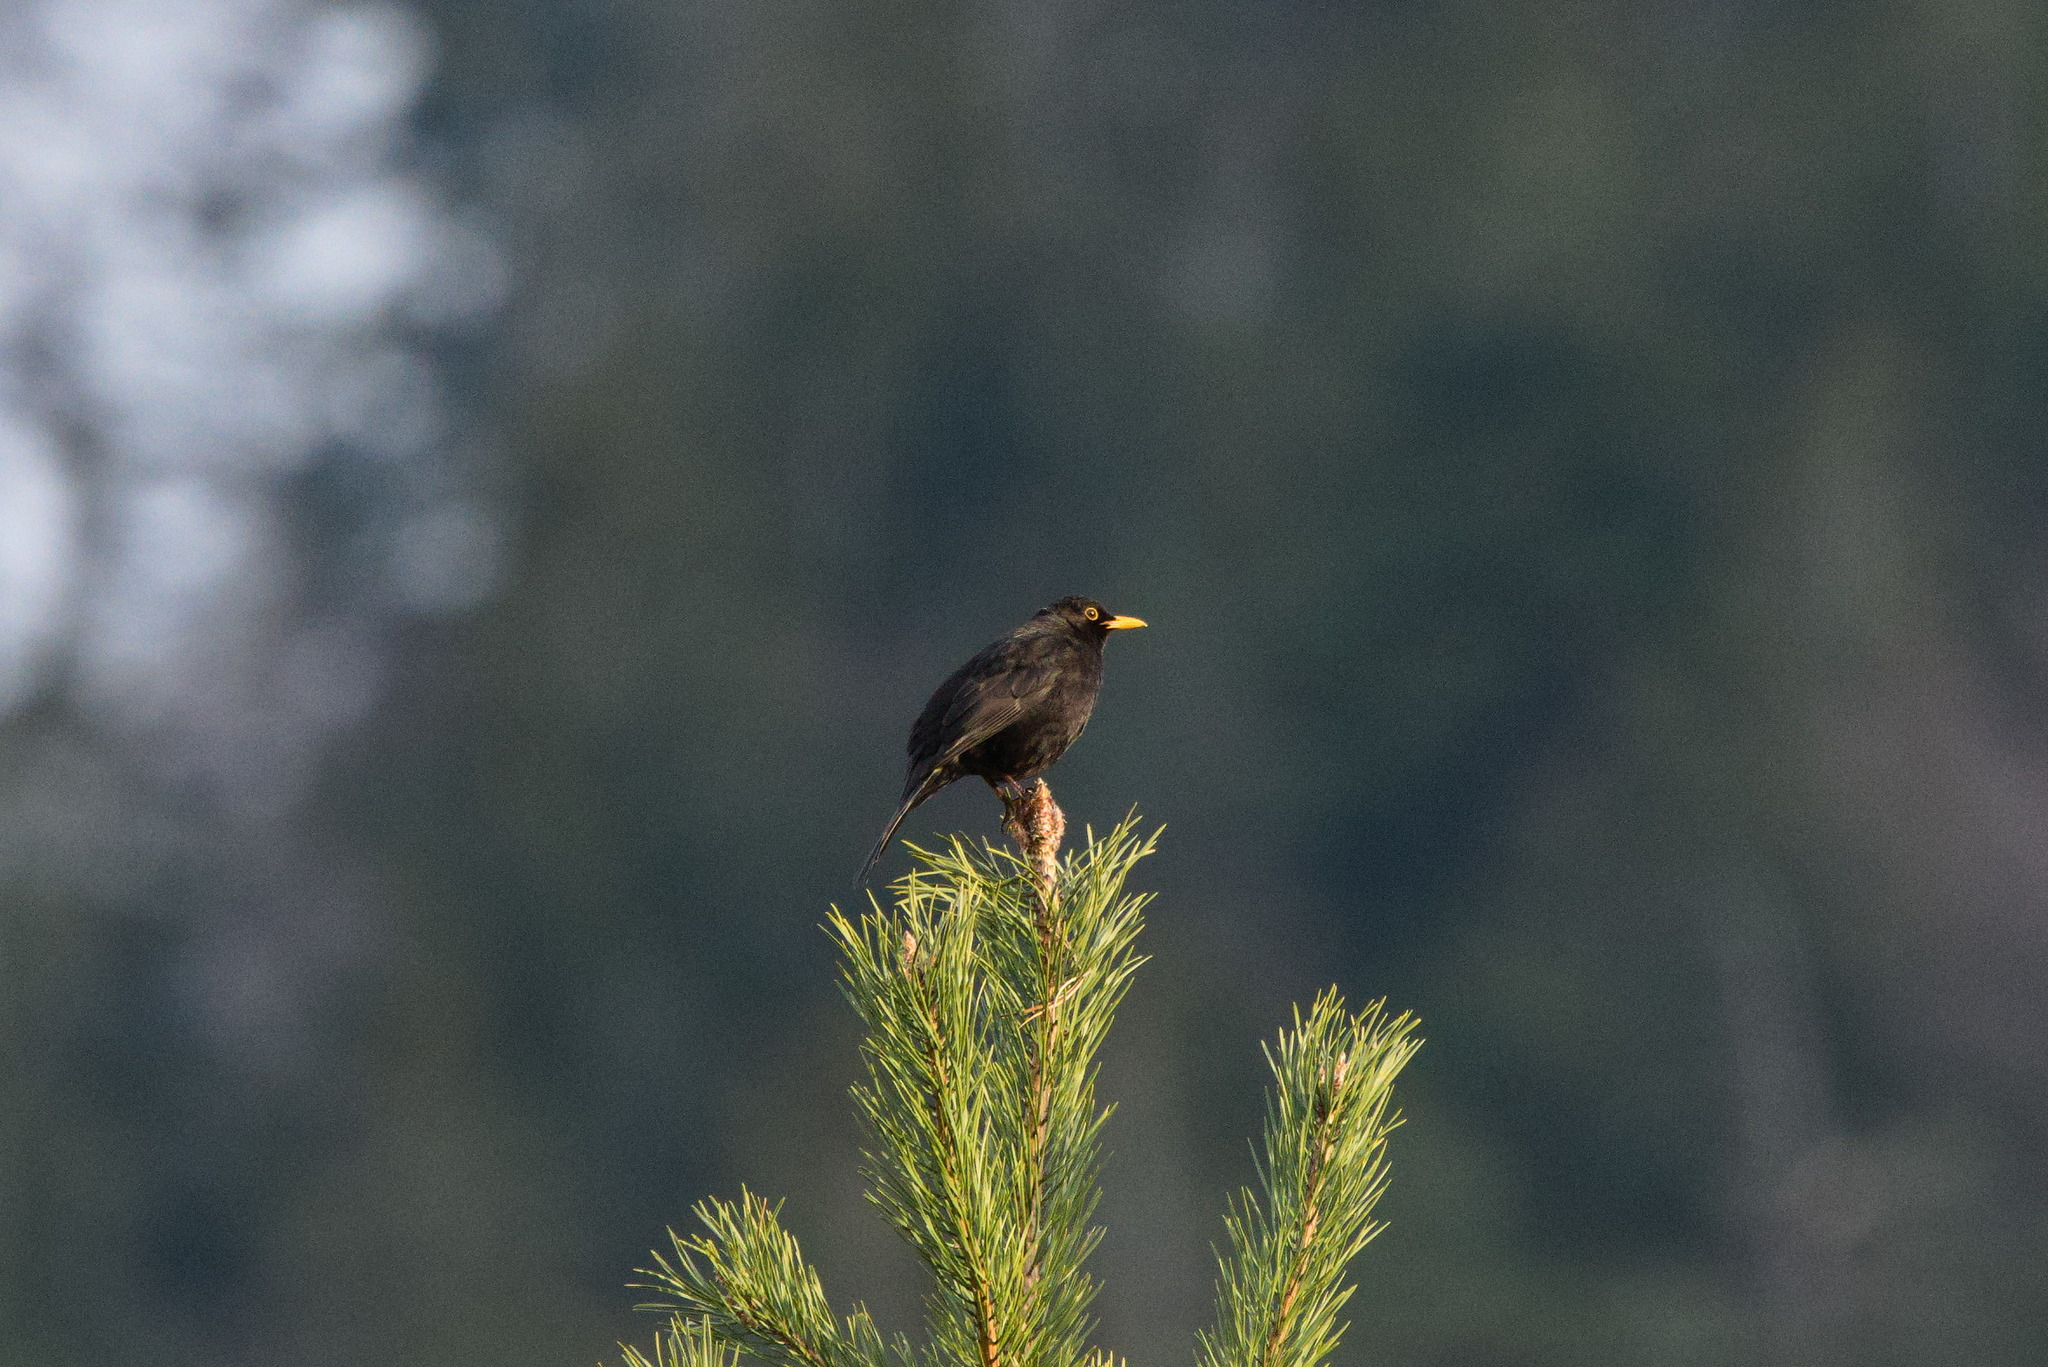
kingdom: Animalia
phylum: Chordata
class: Aves
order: Passeriformes
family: Turdidae
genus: Turdus
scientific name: Turdus merula
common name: Common blackbird
